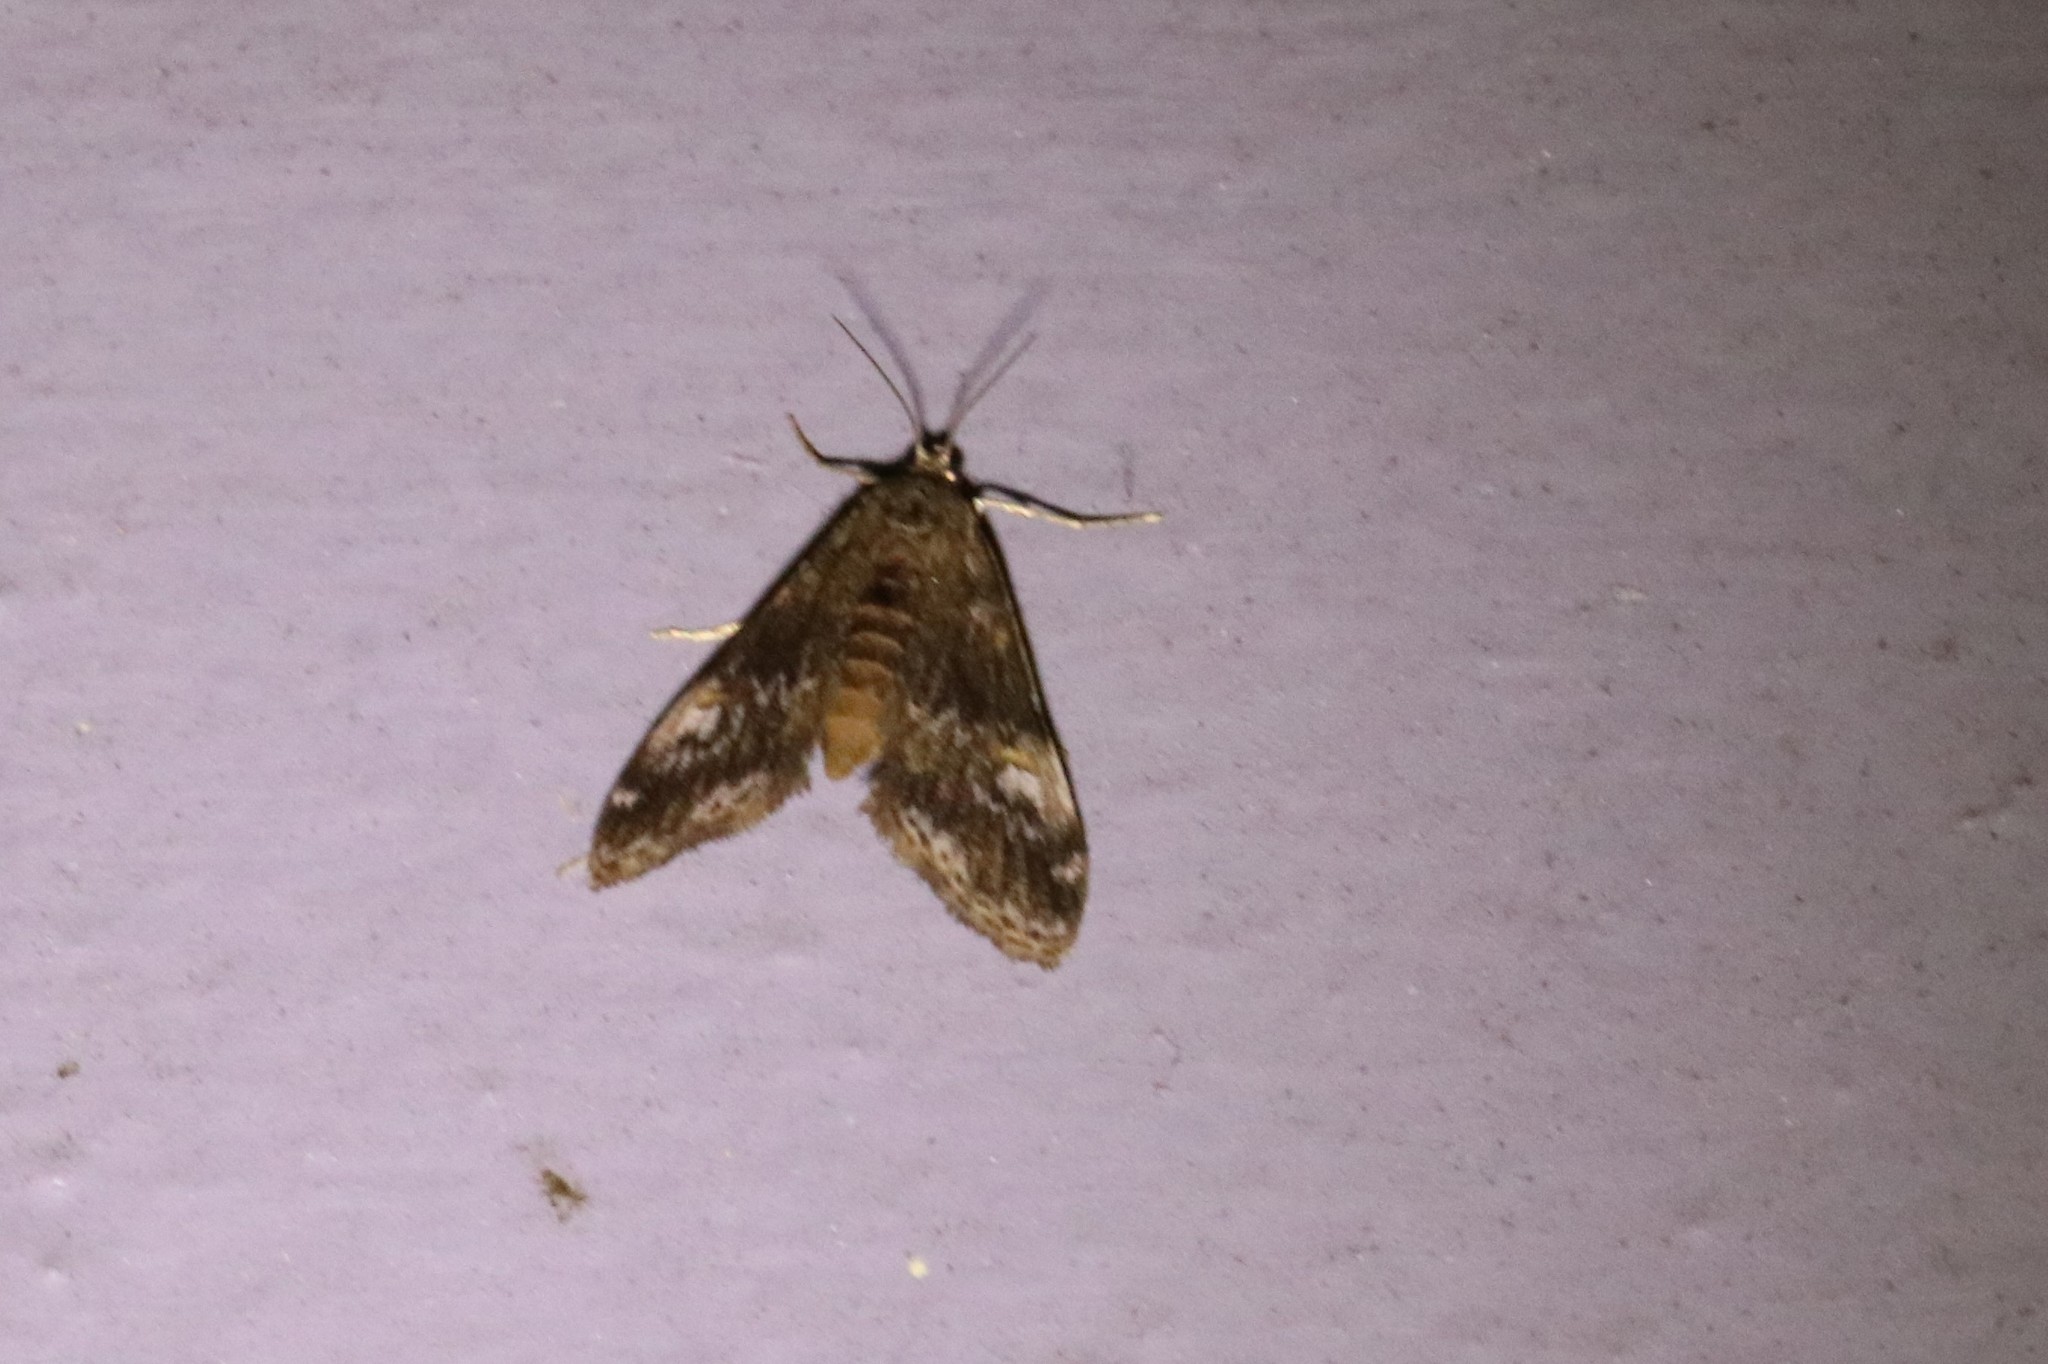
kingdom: Animalia
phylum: Arthropoda
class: Insecta
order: Lepidoptera
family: Crambidae
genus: Elophila
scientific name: Elophila obliteralis
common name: Waterlily leafcutter moth
